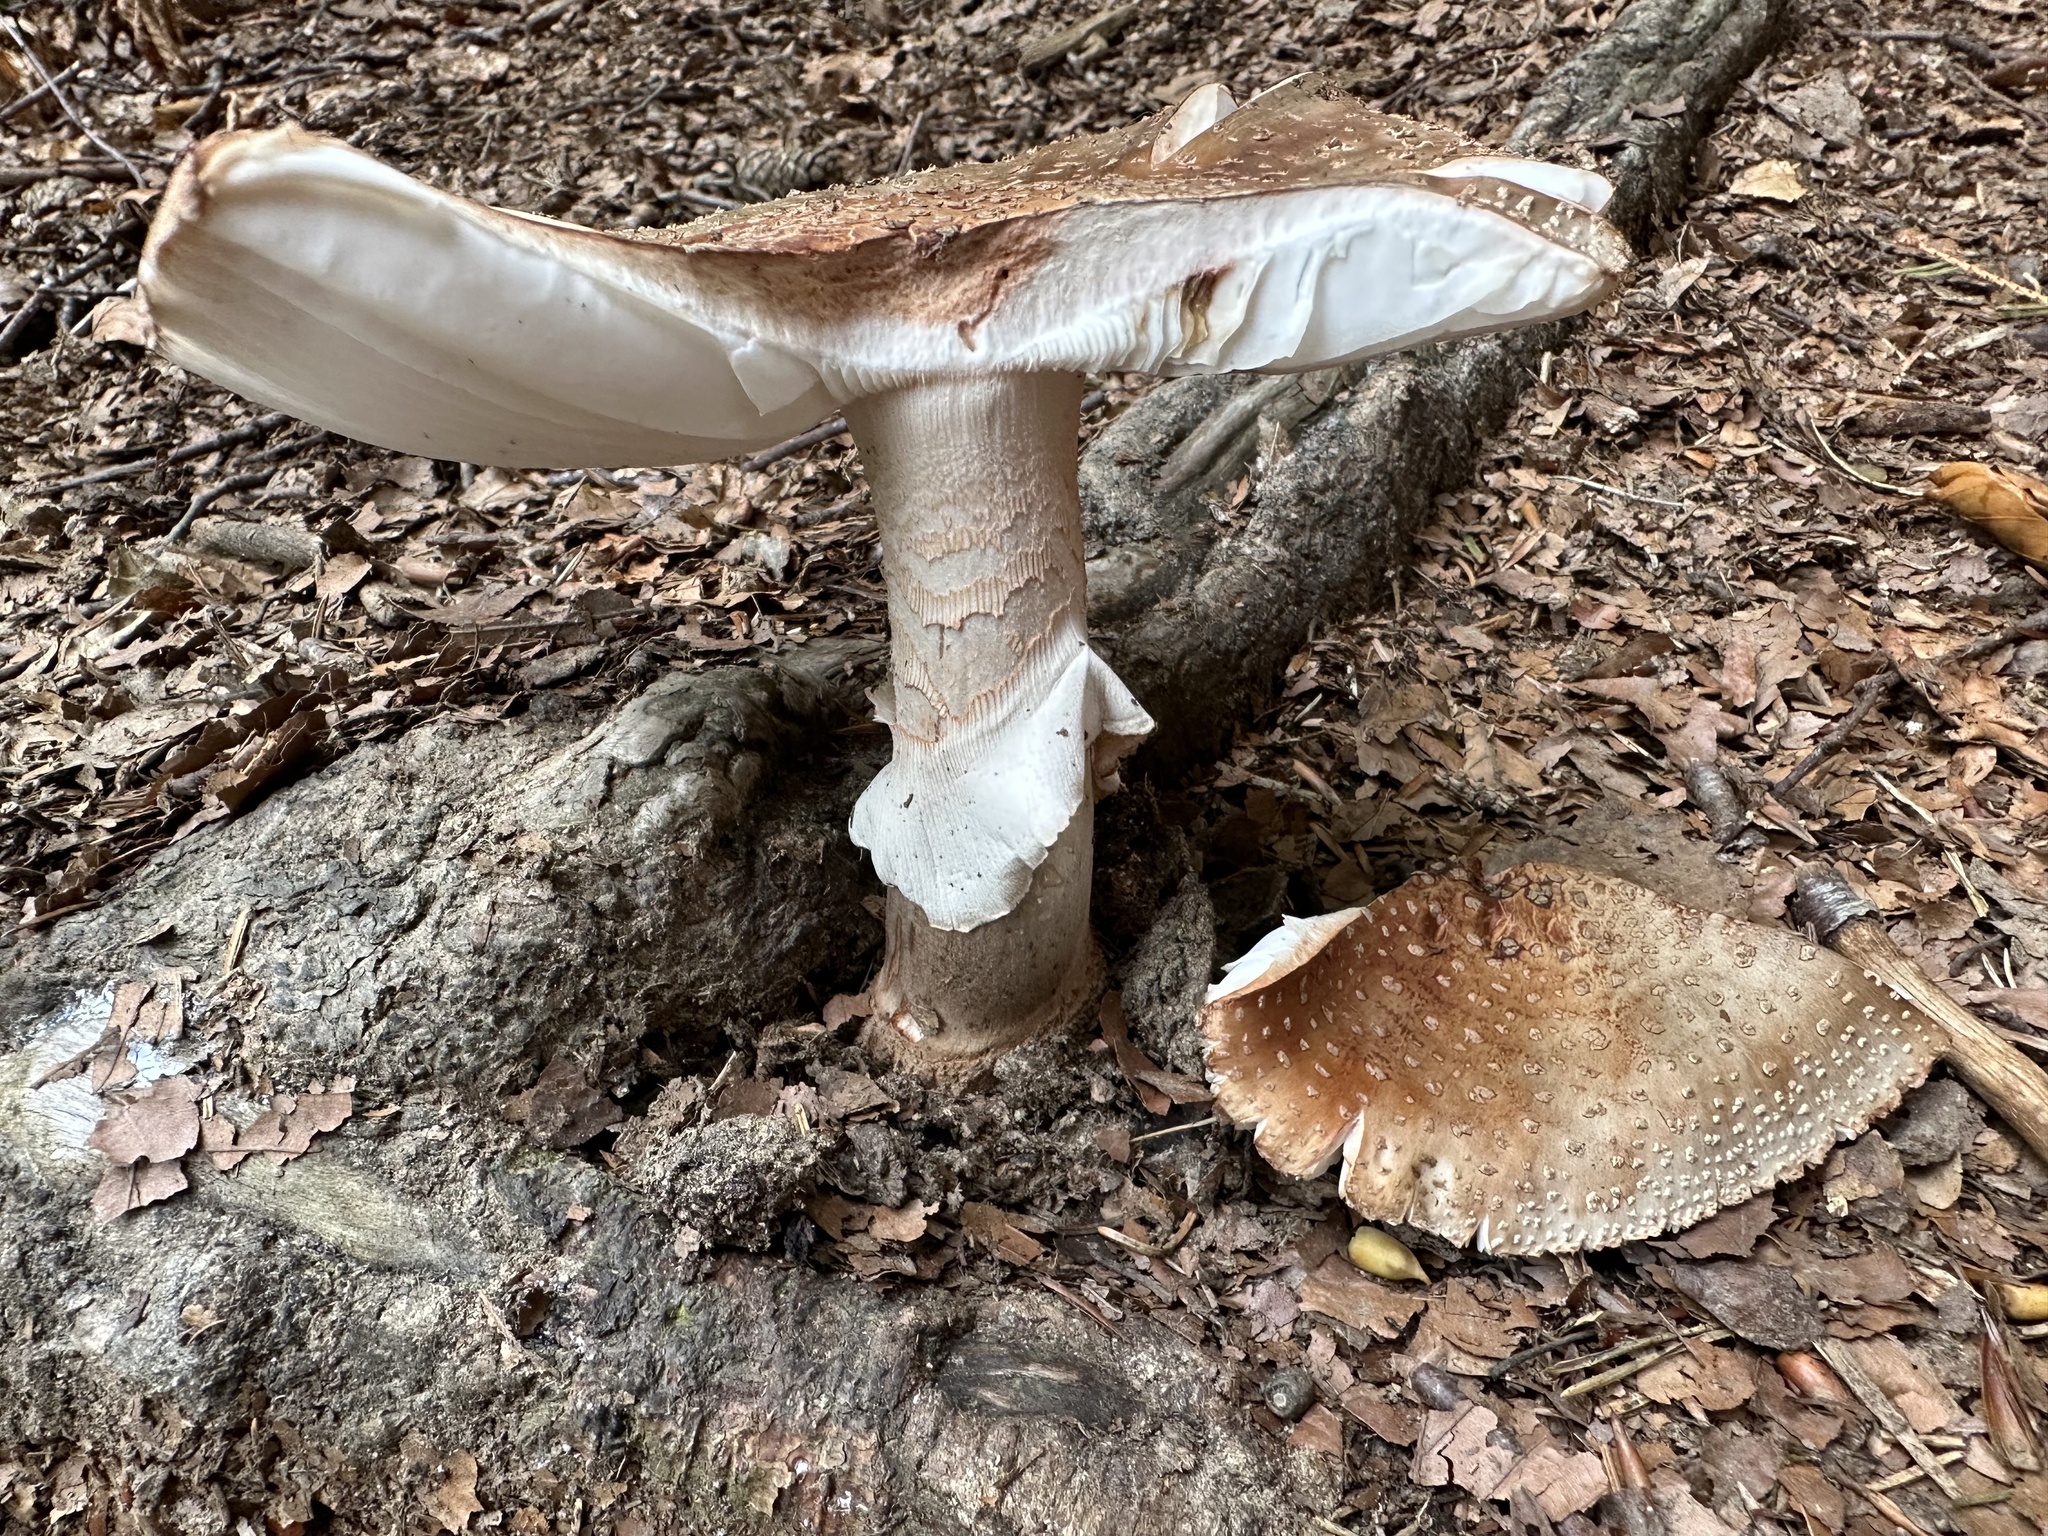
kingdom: Fungi
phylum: Basidiomycota
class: Agaricomycetes
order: Agaricales
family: Amanitaceae
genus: Amanita
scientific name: Amanita rubescens
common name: Blusher
